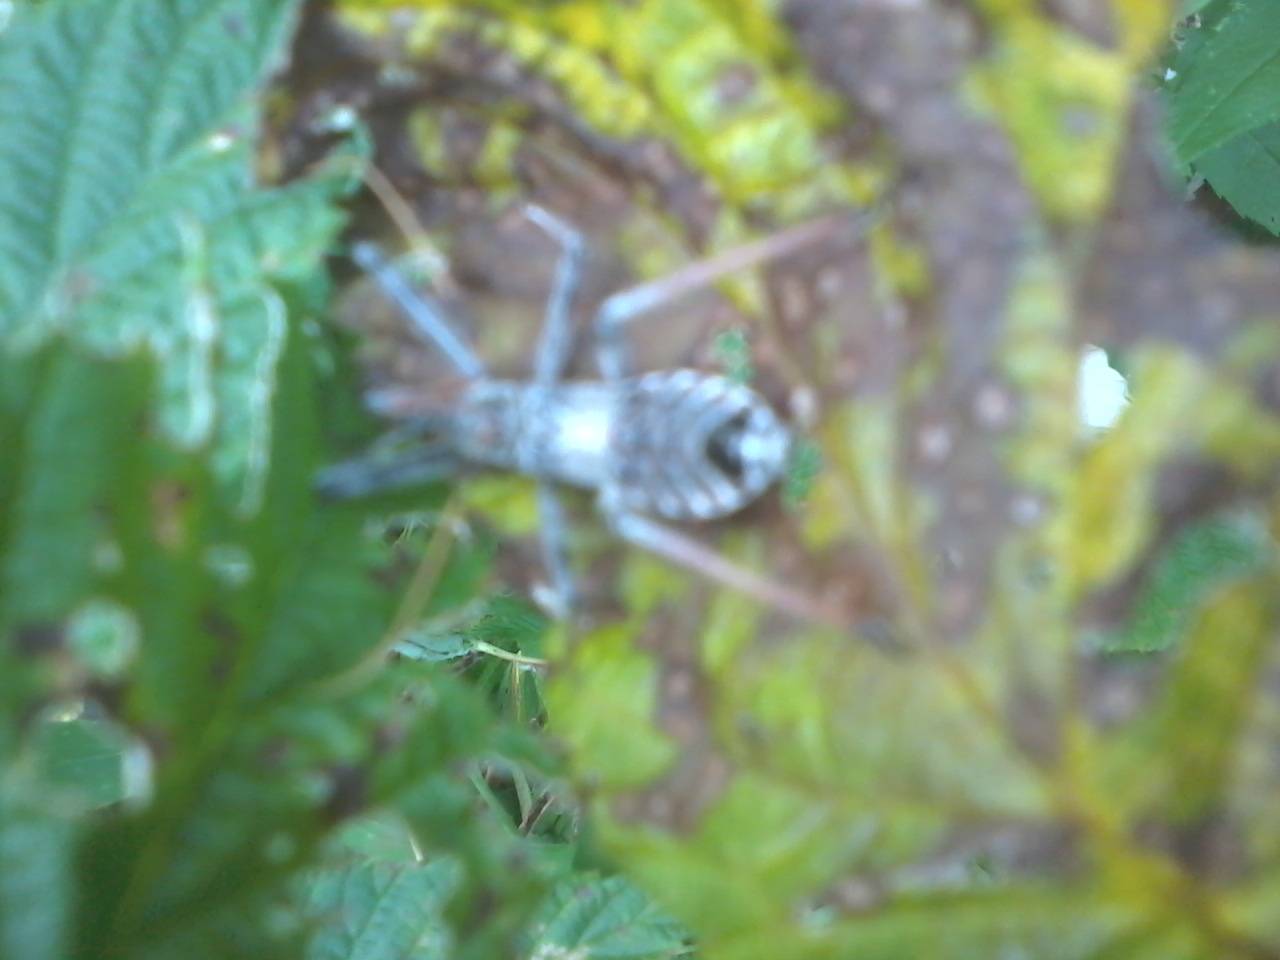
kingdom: Animalia
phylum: Arthropoda
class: Insecta
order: Hemiptera
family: Reduviidae
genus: Arilus
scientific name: Arilus cristatus
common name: North american wheel bug
